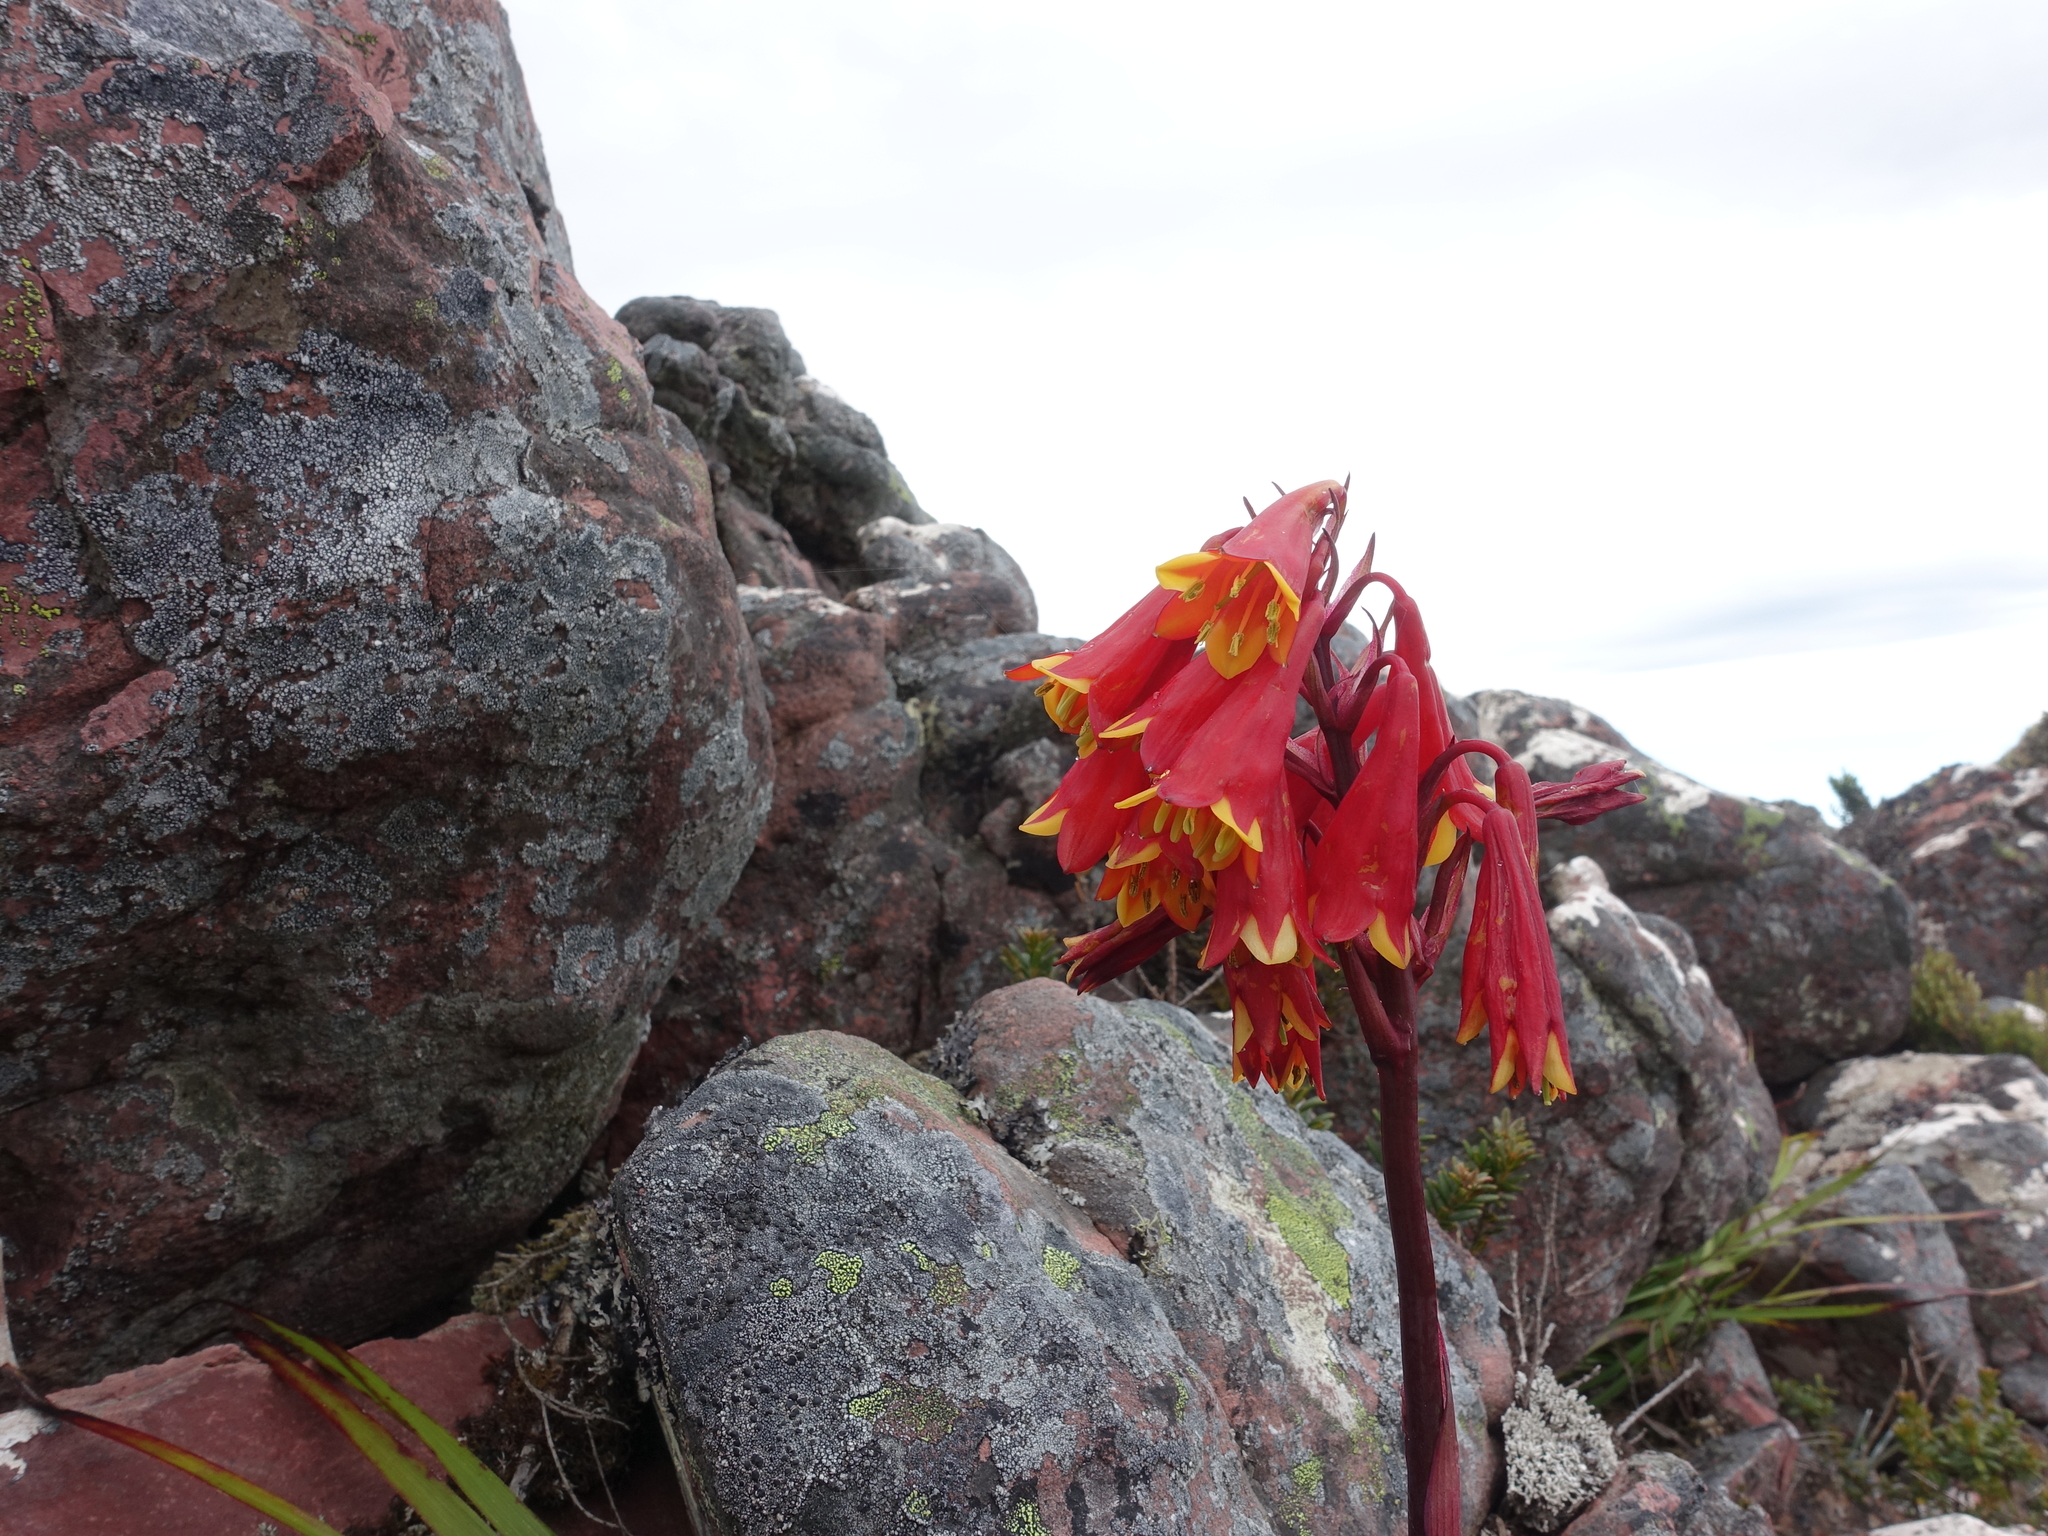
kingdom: Plantae
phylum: Tracheophyta
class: Liliopsida
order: Asparagales
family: Blandfordiaceae
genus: Blandfordia
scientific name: Blandfordia punicea
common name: Tasmanian christmas-bell
